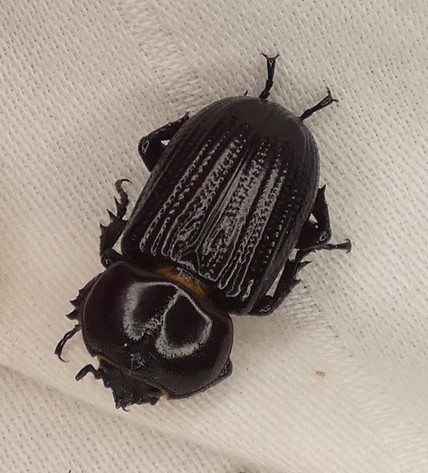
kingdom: Animalia
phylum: Arthropoda
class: Insecta
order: Coleoptera
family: Scarabaeidae
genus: Phileurus
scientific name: Phileurus valgus
